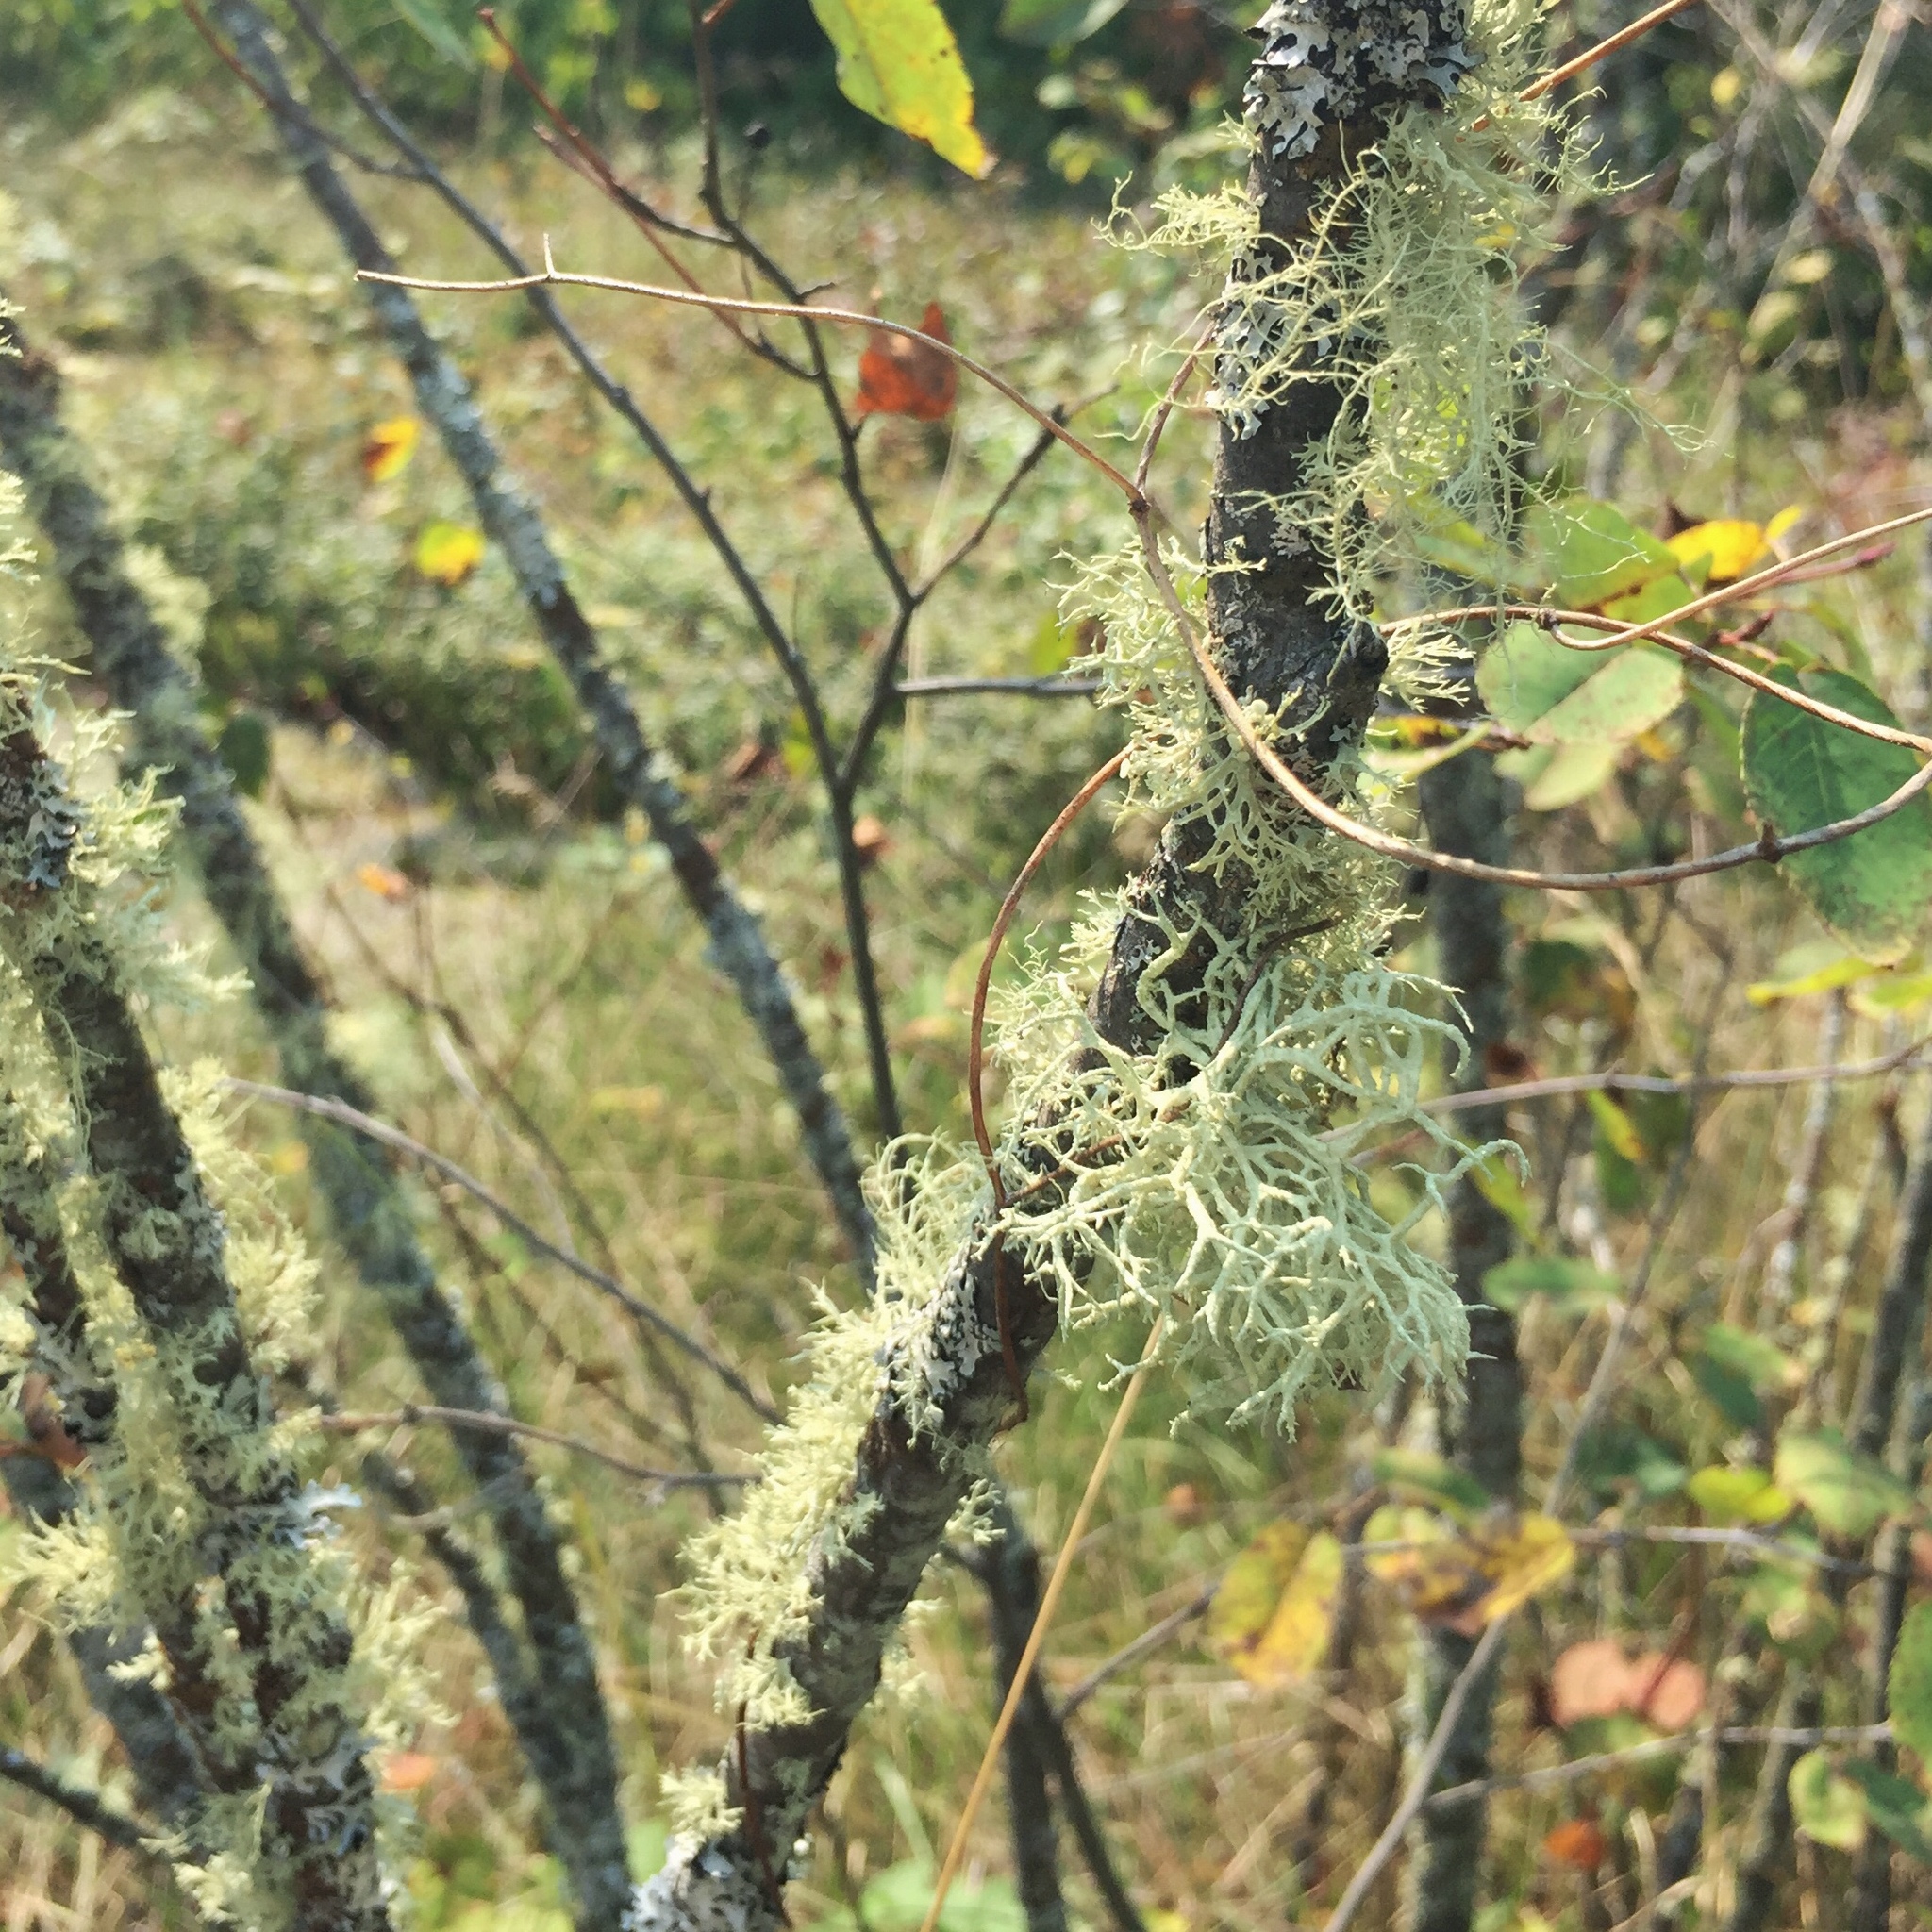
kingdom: Fungi
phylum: Ascomycota
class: Lecanoromycetes
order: Lecanorales
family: Parmeliaceae
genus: Evernia
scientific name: Evernia mesomorpha
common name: Boreal oak moss lichen
